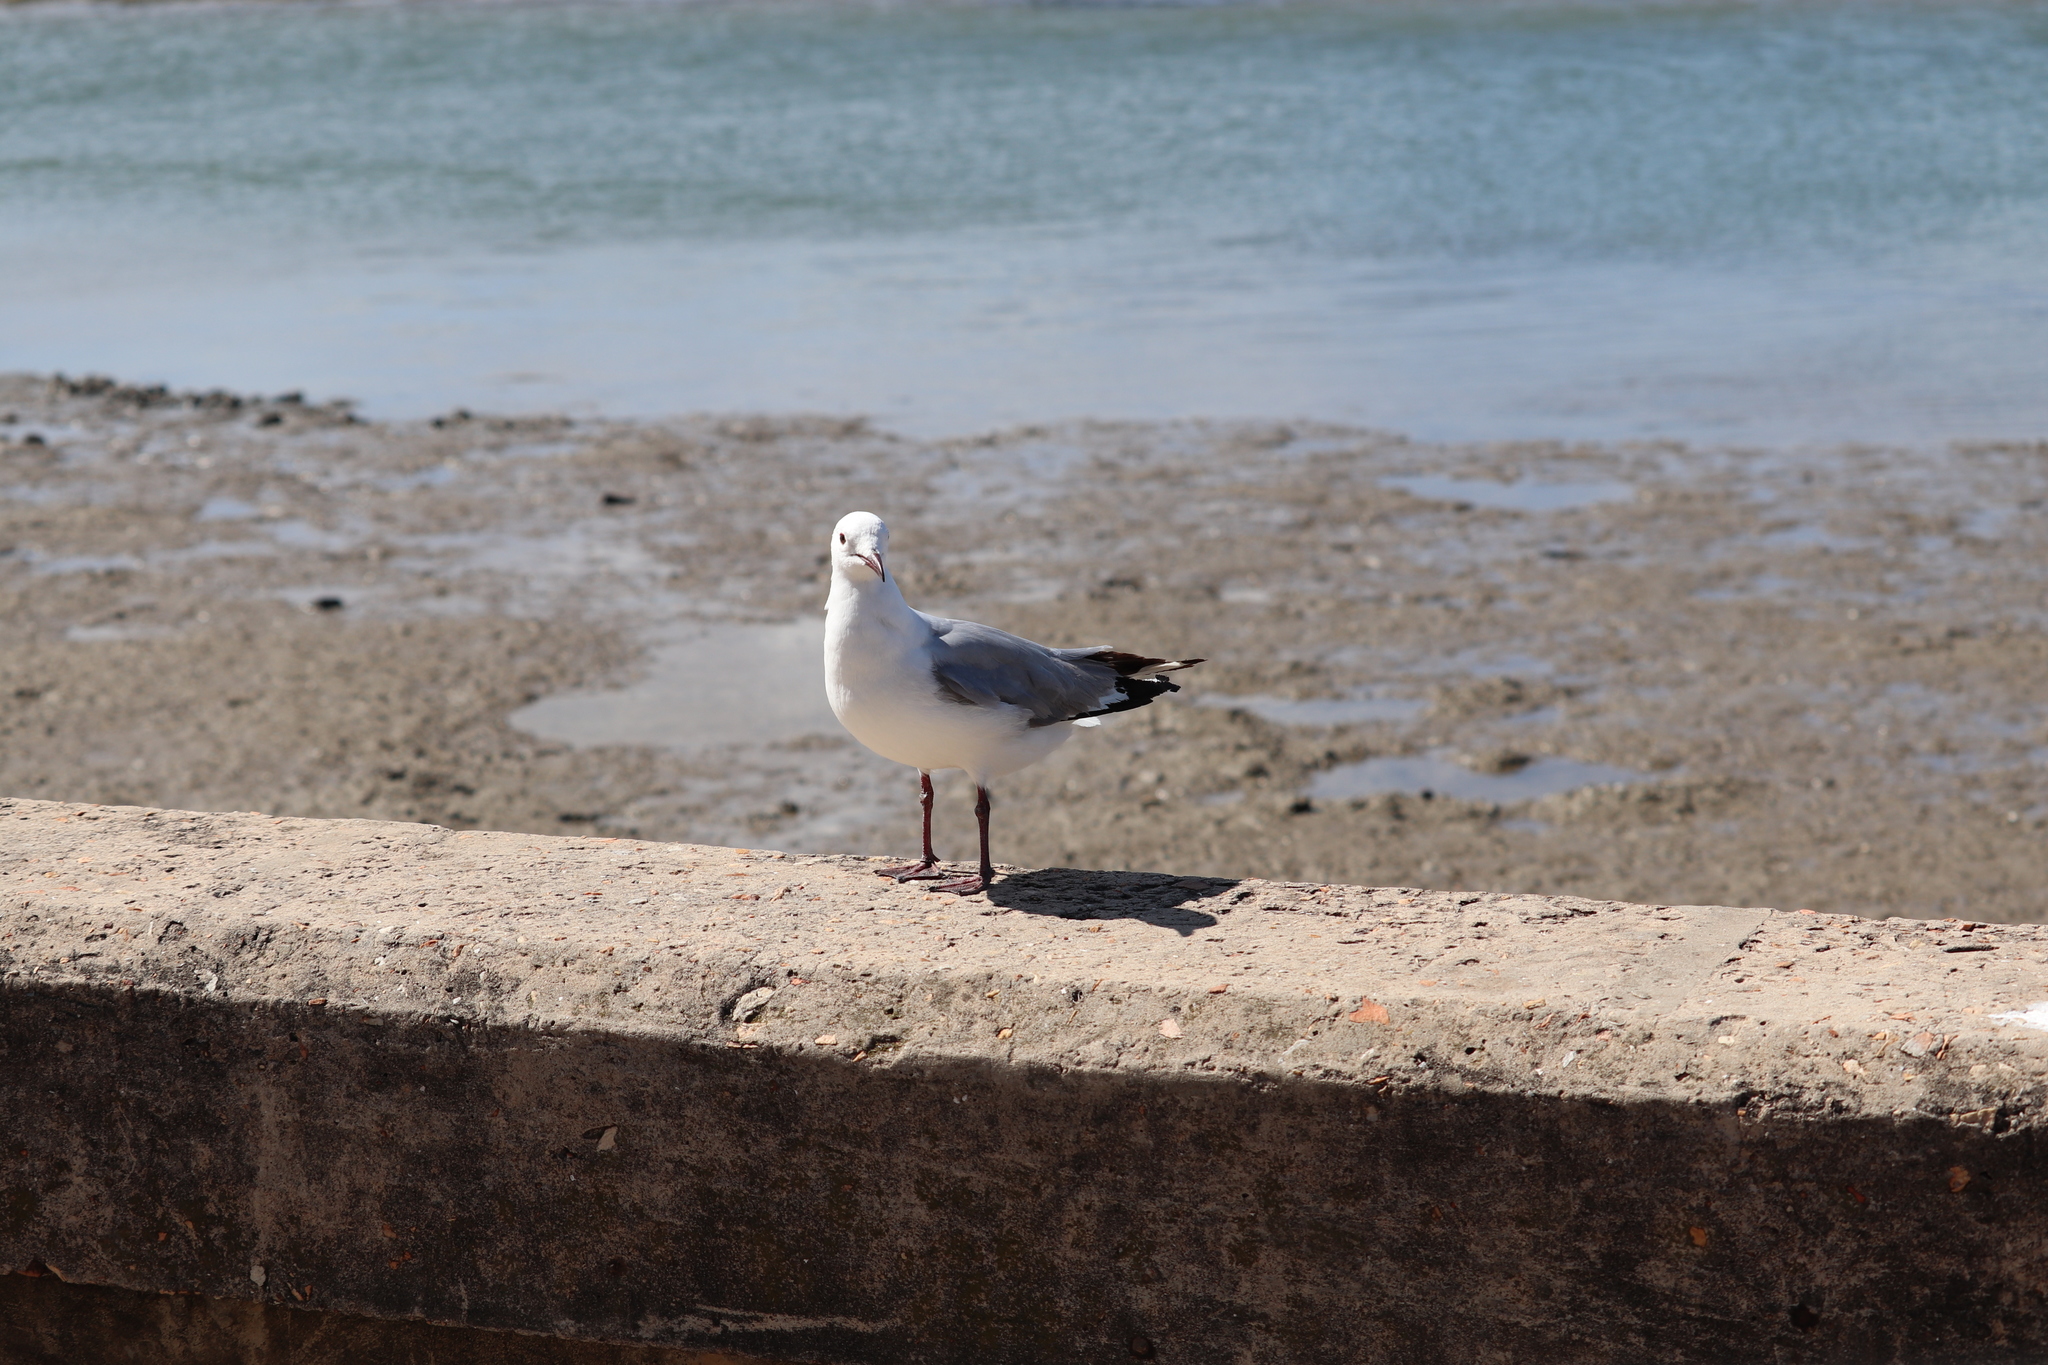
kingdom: Animalia
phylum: Chordata
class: Aves
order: Charadriiformes
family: Laridae
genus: Chroicocephalus
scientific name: Chroicocephalus hartlaubii
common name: Hartlaub's gull
